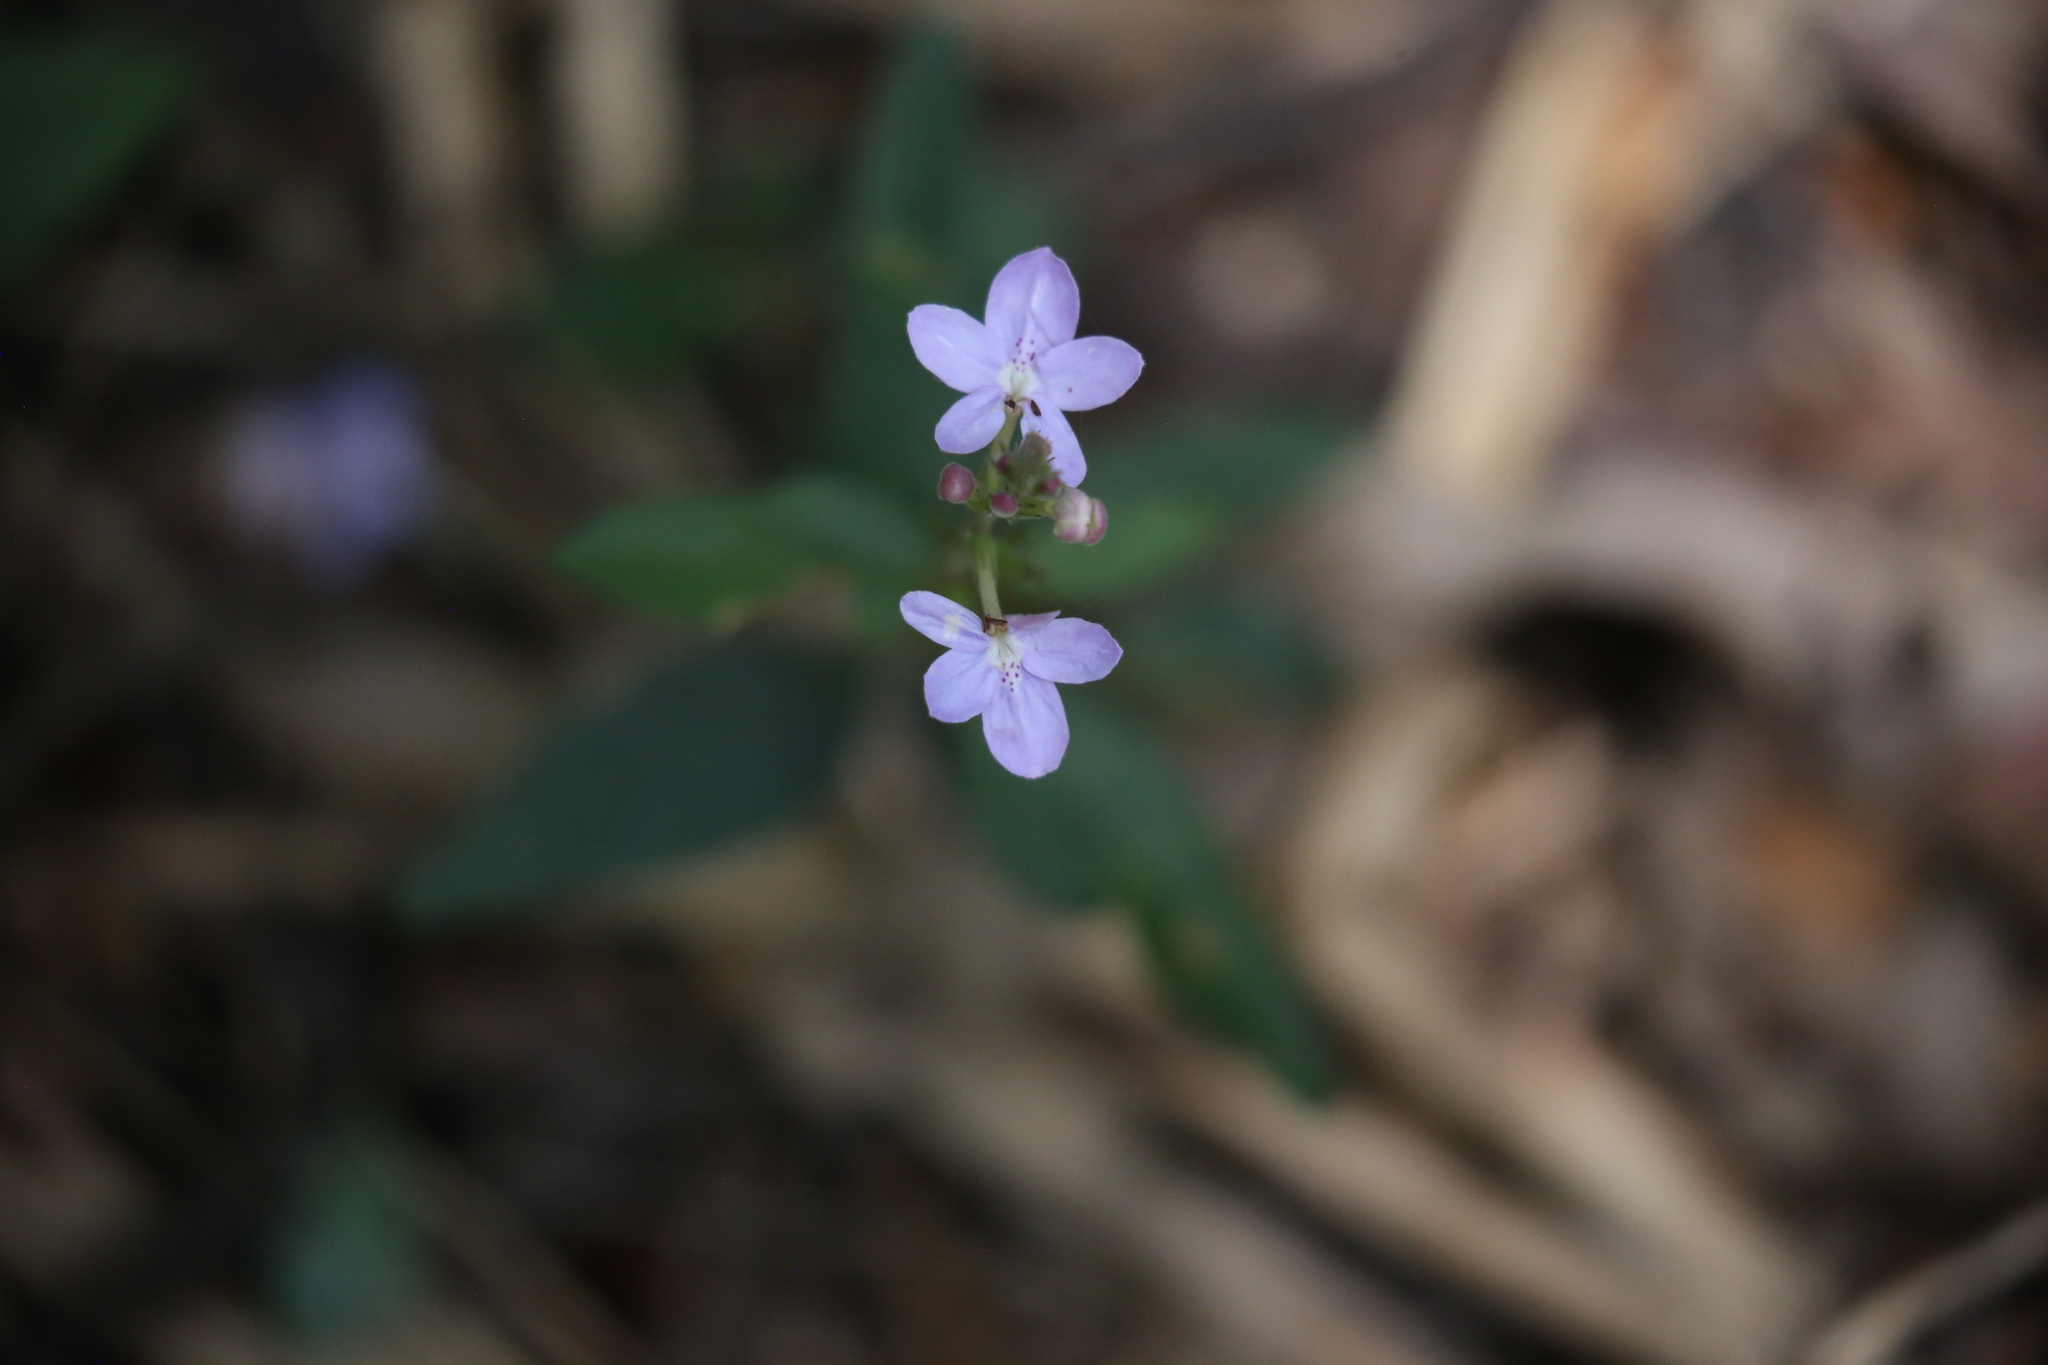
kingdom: Plantae
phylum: Tracheophyta
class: Magnoliopsida
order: Lamiales
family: Acanthaceae
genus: Pseuderanthemum
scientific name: Pseuderanthemum variabile
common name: Night and afternoon
